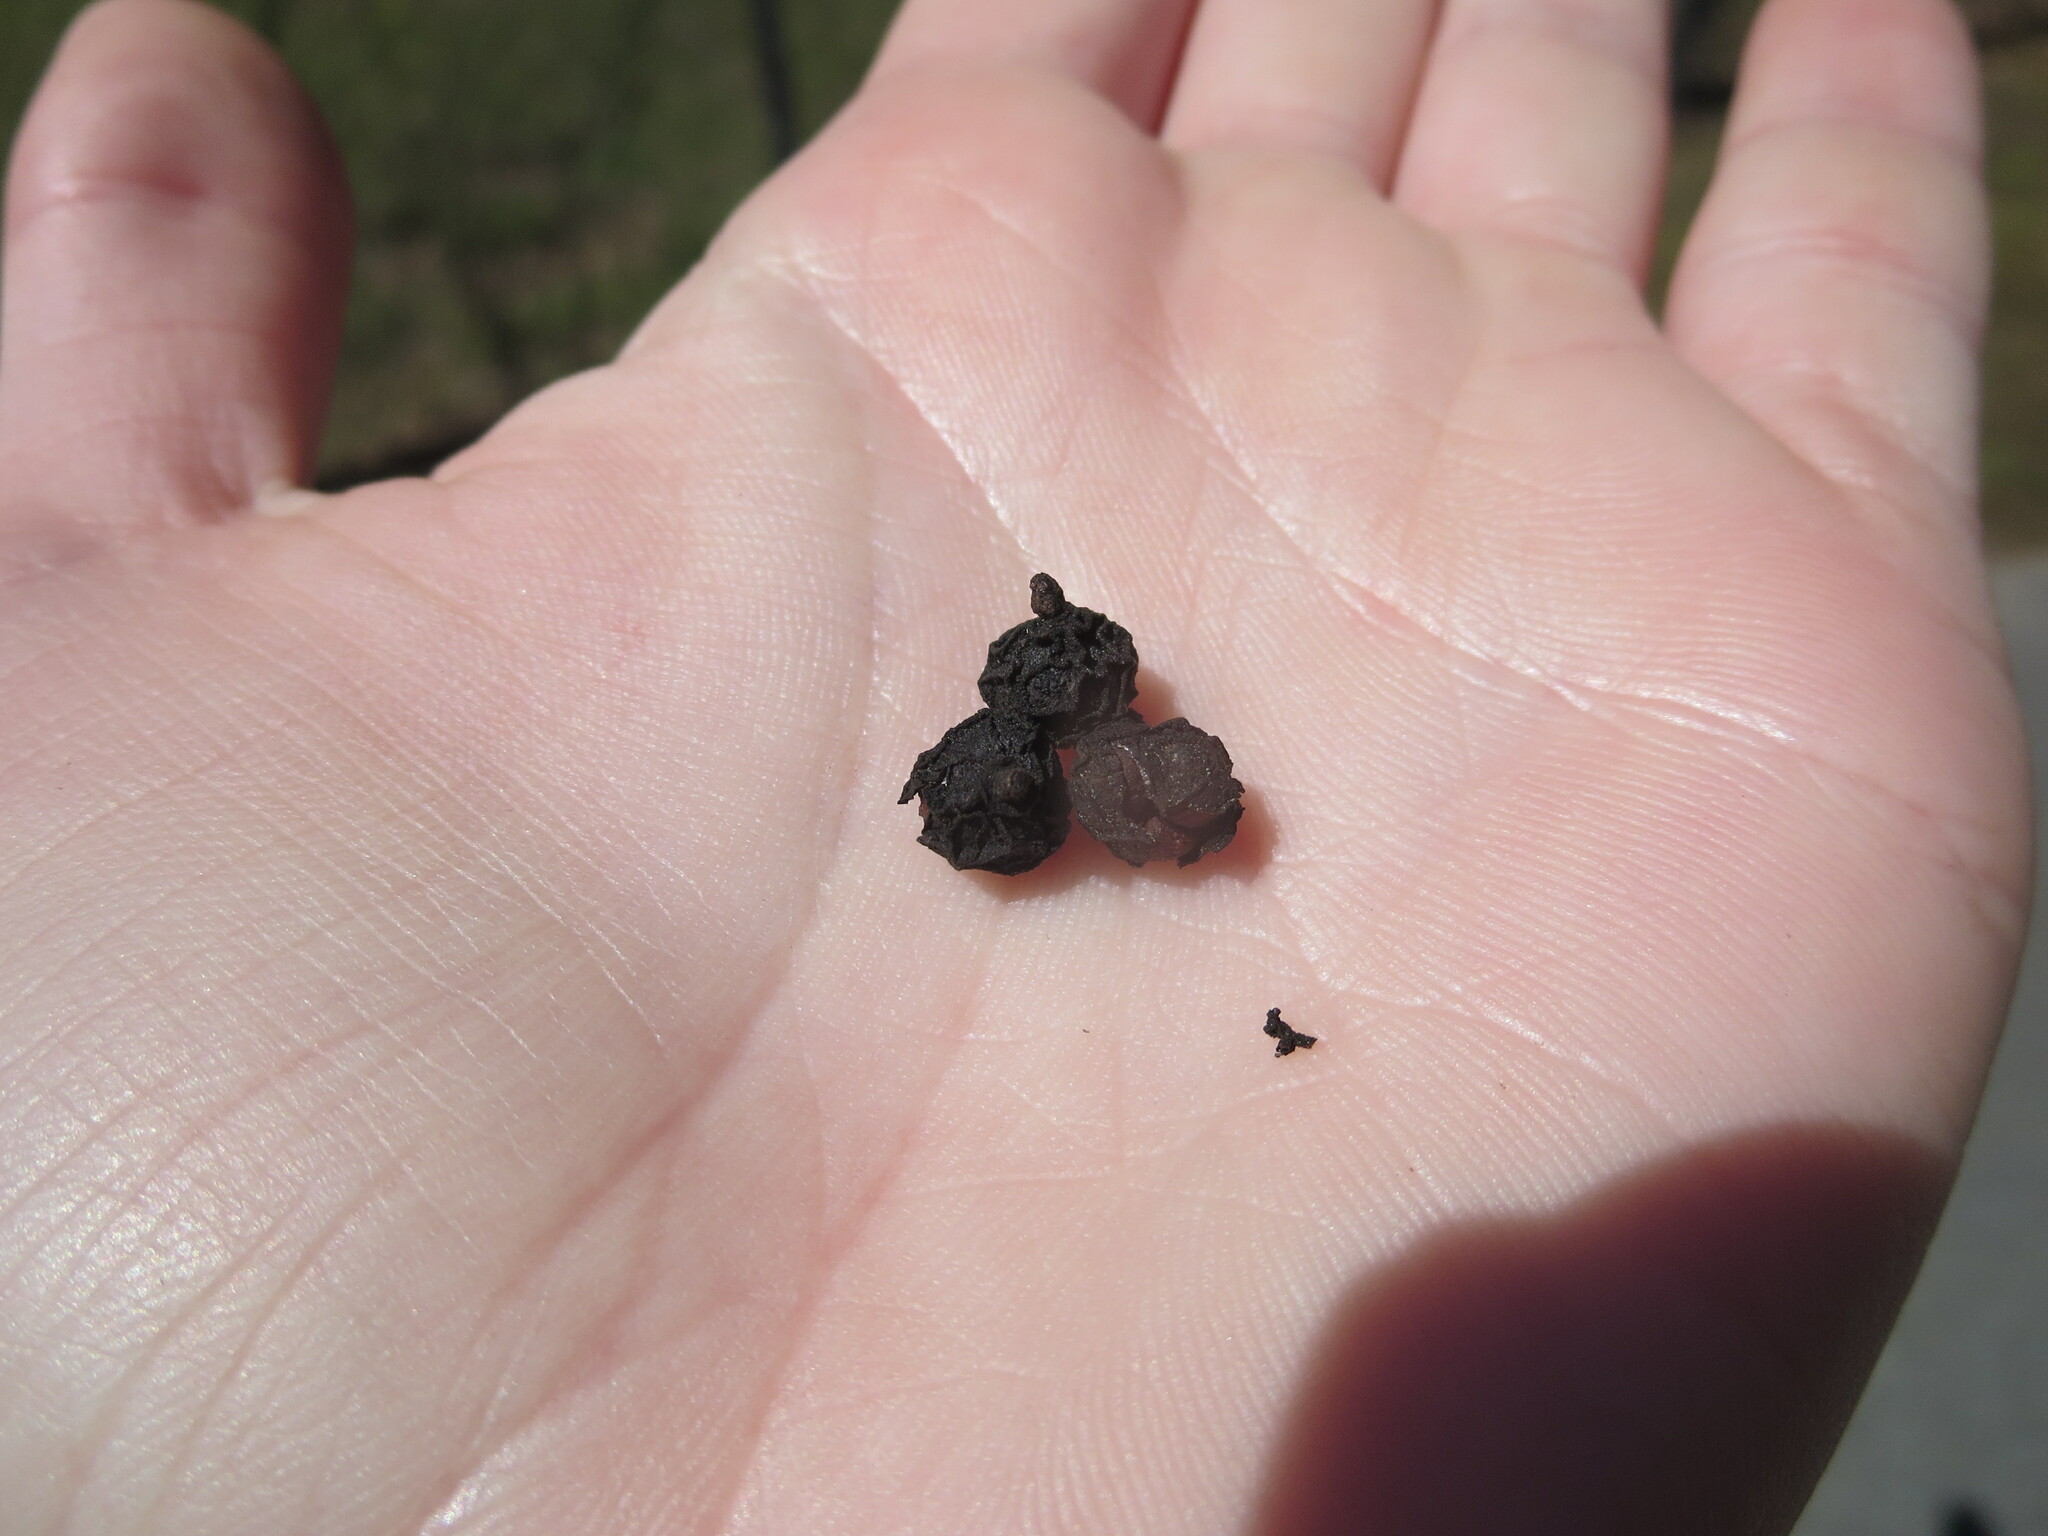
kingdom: Plantae
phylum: Tracheophyta
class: Magnoliopsida
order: Vitales
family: Vitaceae
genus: Nekemias
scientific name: Nekemias arborea
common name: Peppervine
